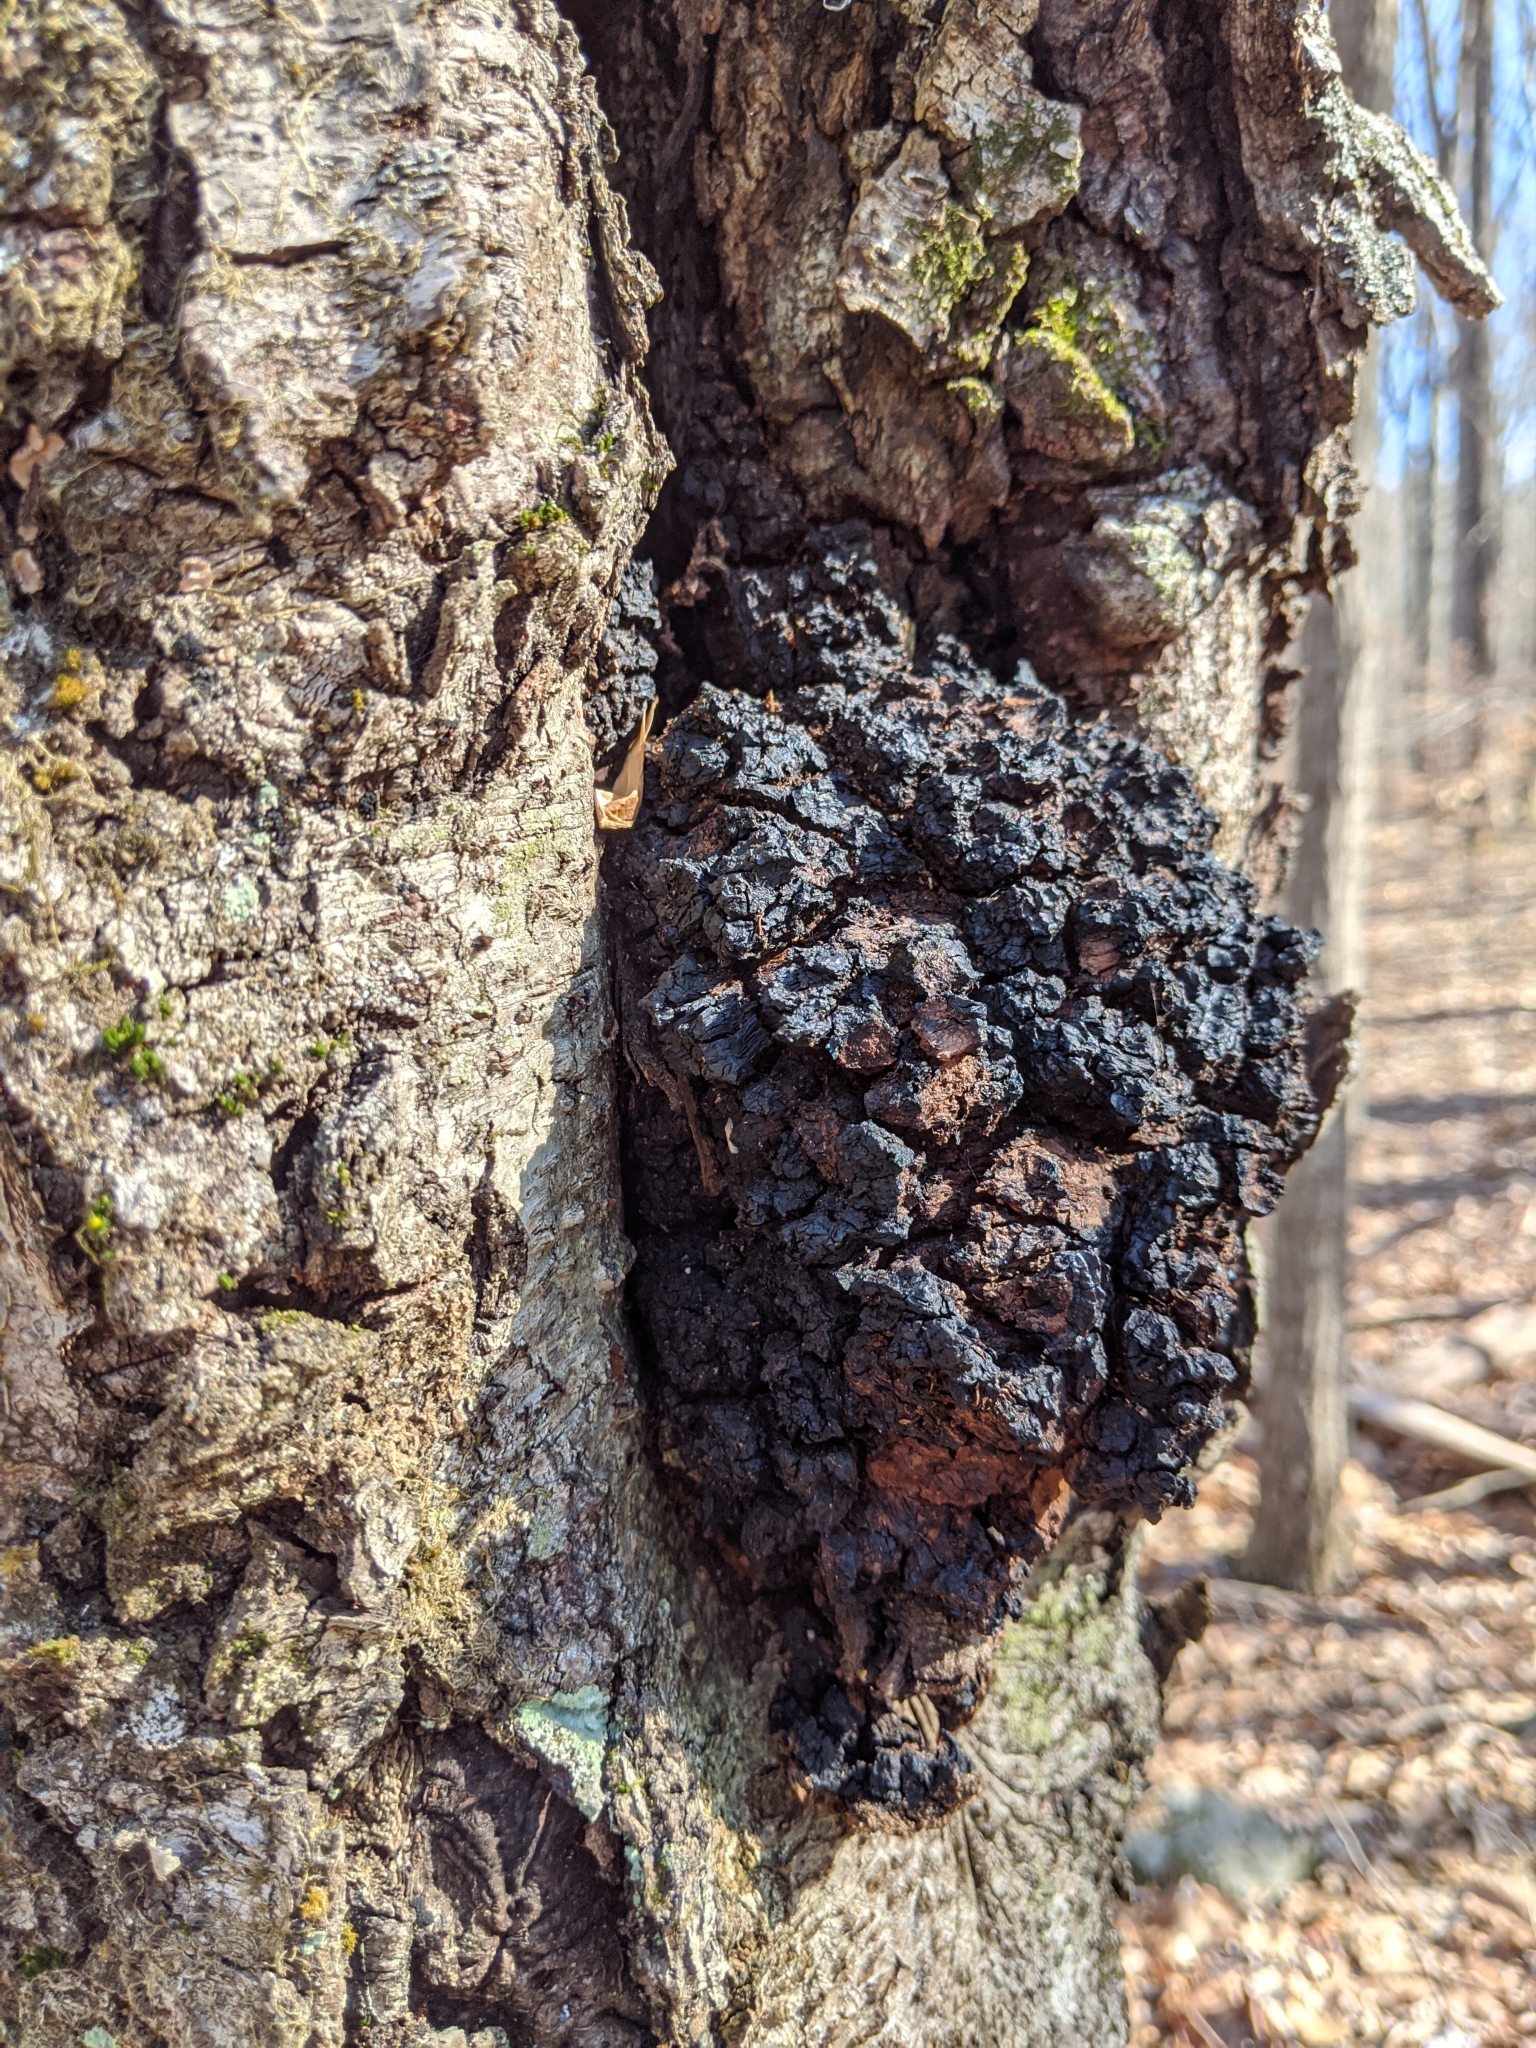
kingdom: Fungi
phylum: Basidiomycota
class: Agaricomycetes
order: Hymenochaetales
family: Hymenochaetaceae
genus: Inonotus
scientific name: Inonotus obliquus
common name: Chaga
